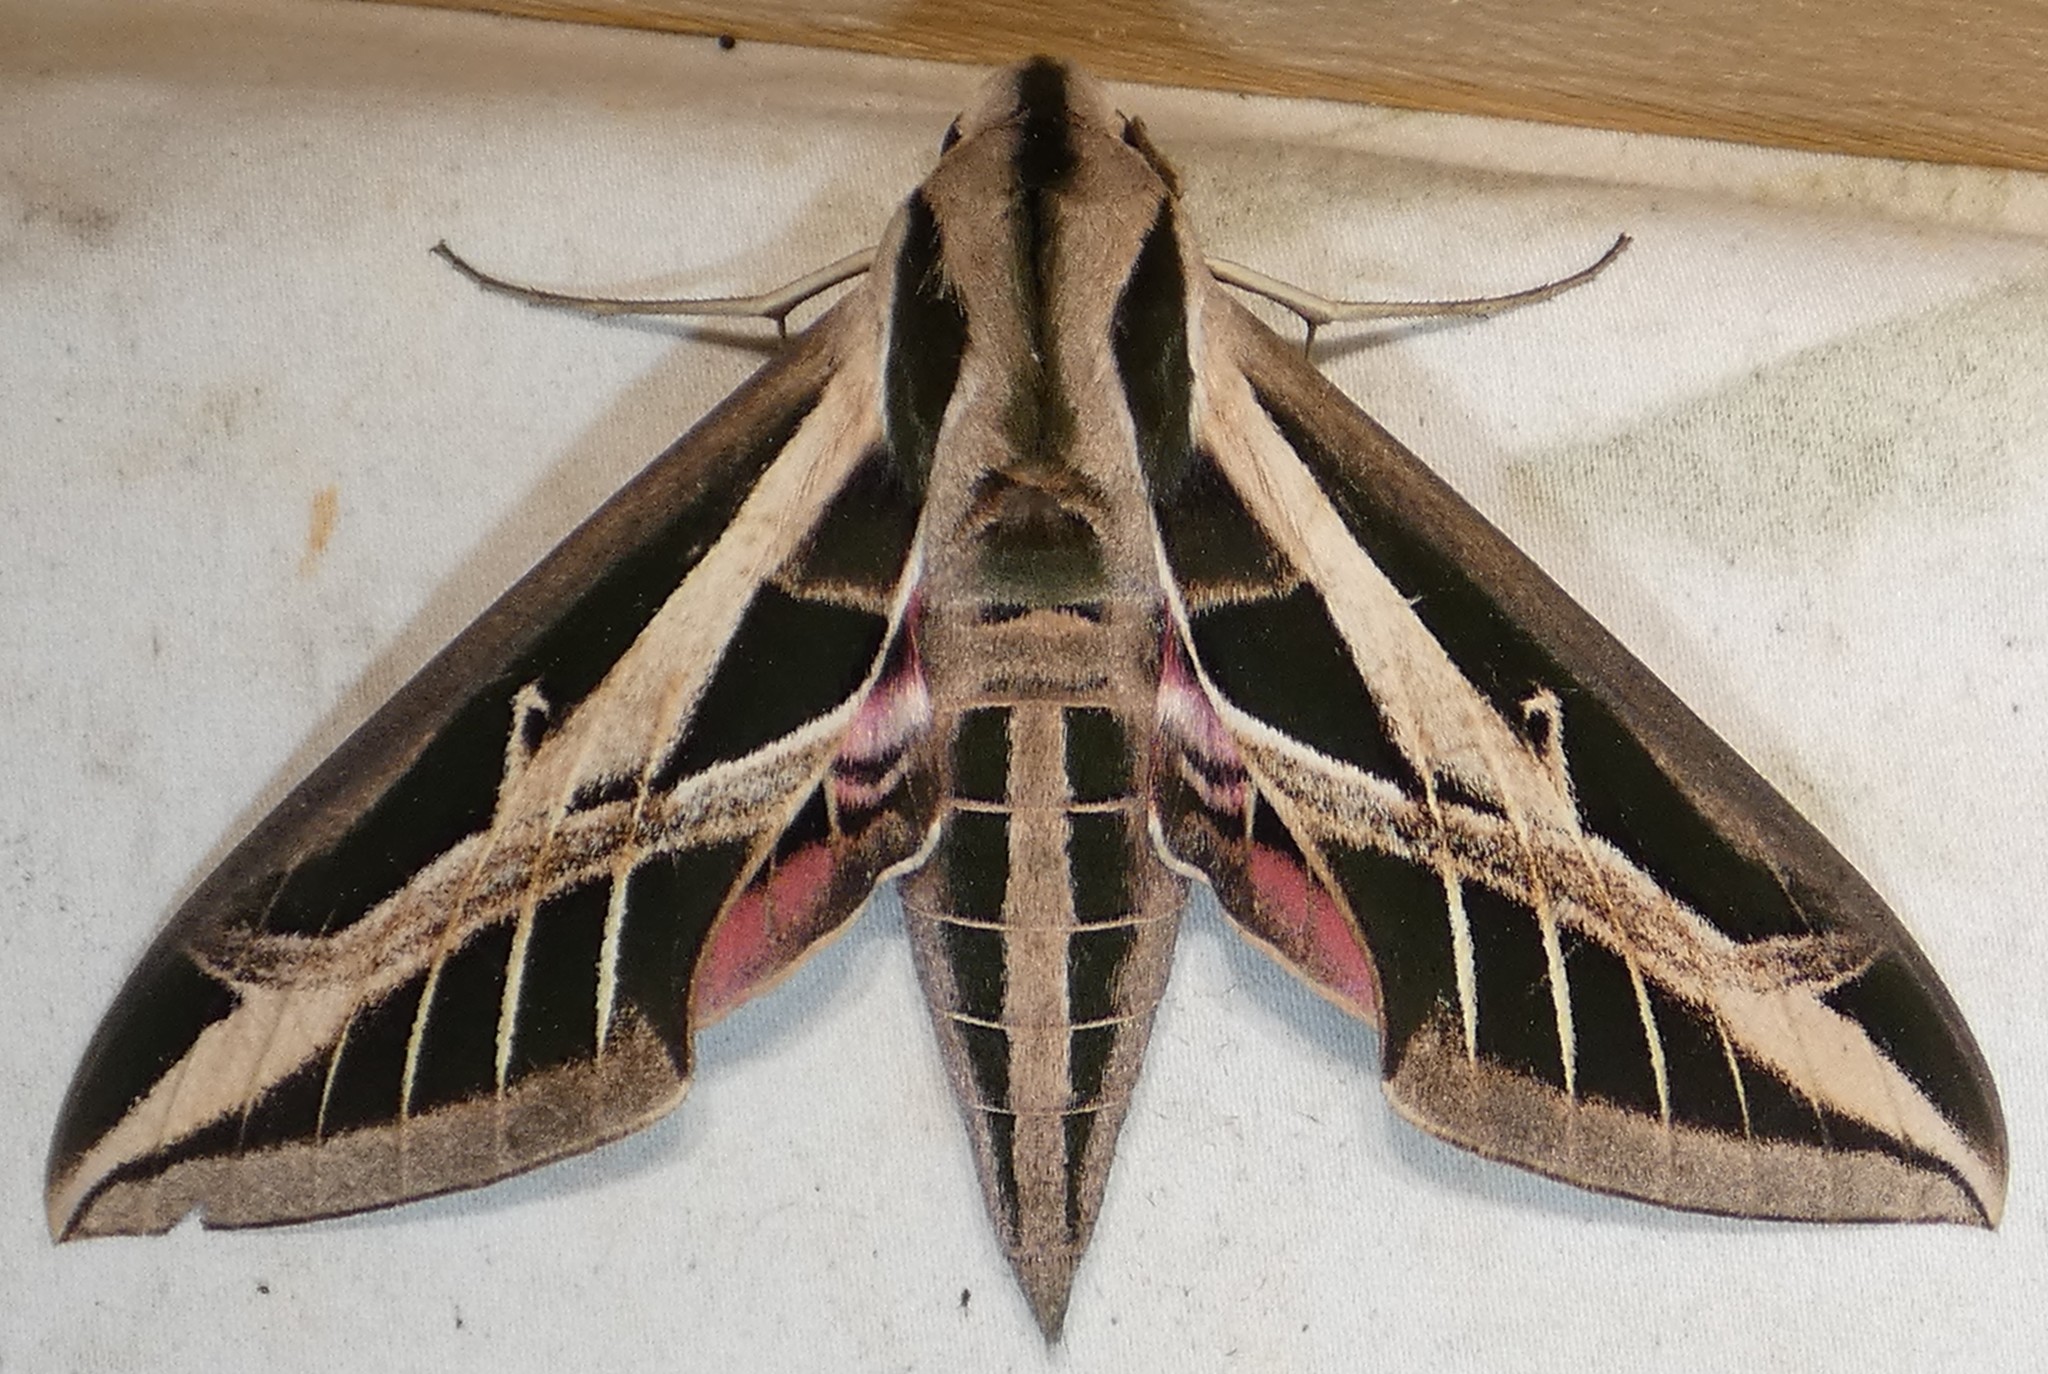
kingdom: Animalia
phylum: Arthropoda
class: Insecta
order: Lepidoptera
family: Sphingidae
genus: Eumorpha
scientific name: Eumorpha fasciatus
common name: Banded sphinx
